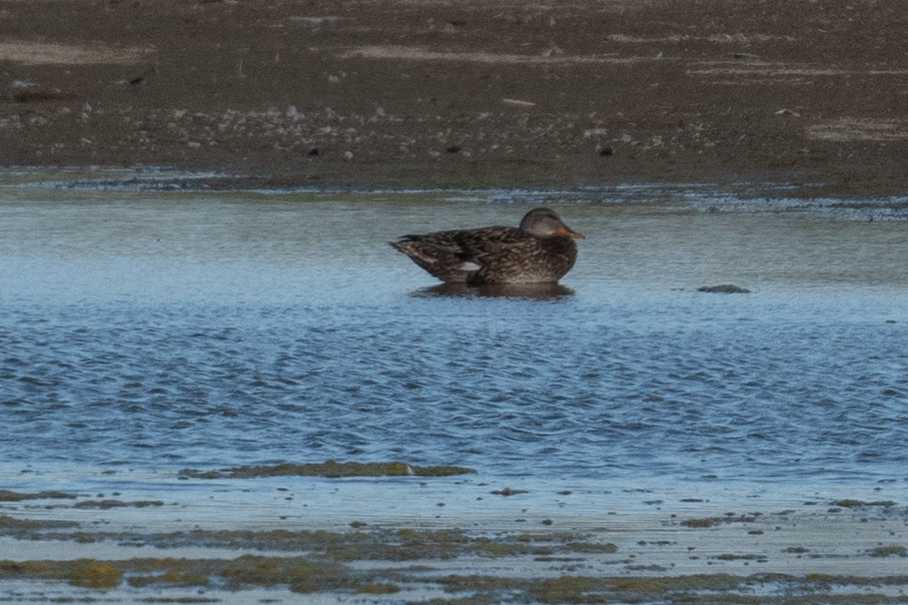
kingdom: Animalia
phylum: Chordata
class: Aves
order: Anseriformes
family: Anatidae
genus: Mareca
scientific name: Mareca strepera
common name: Gadwall
